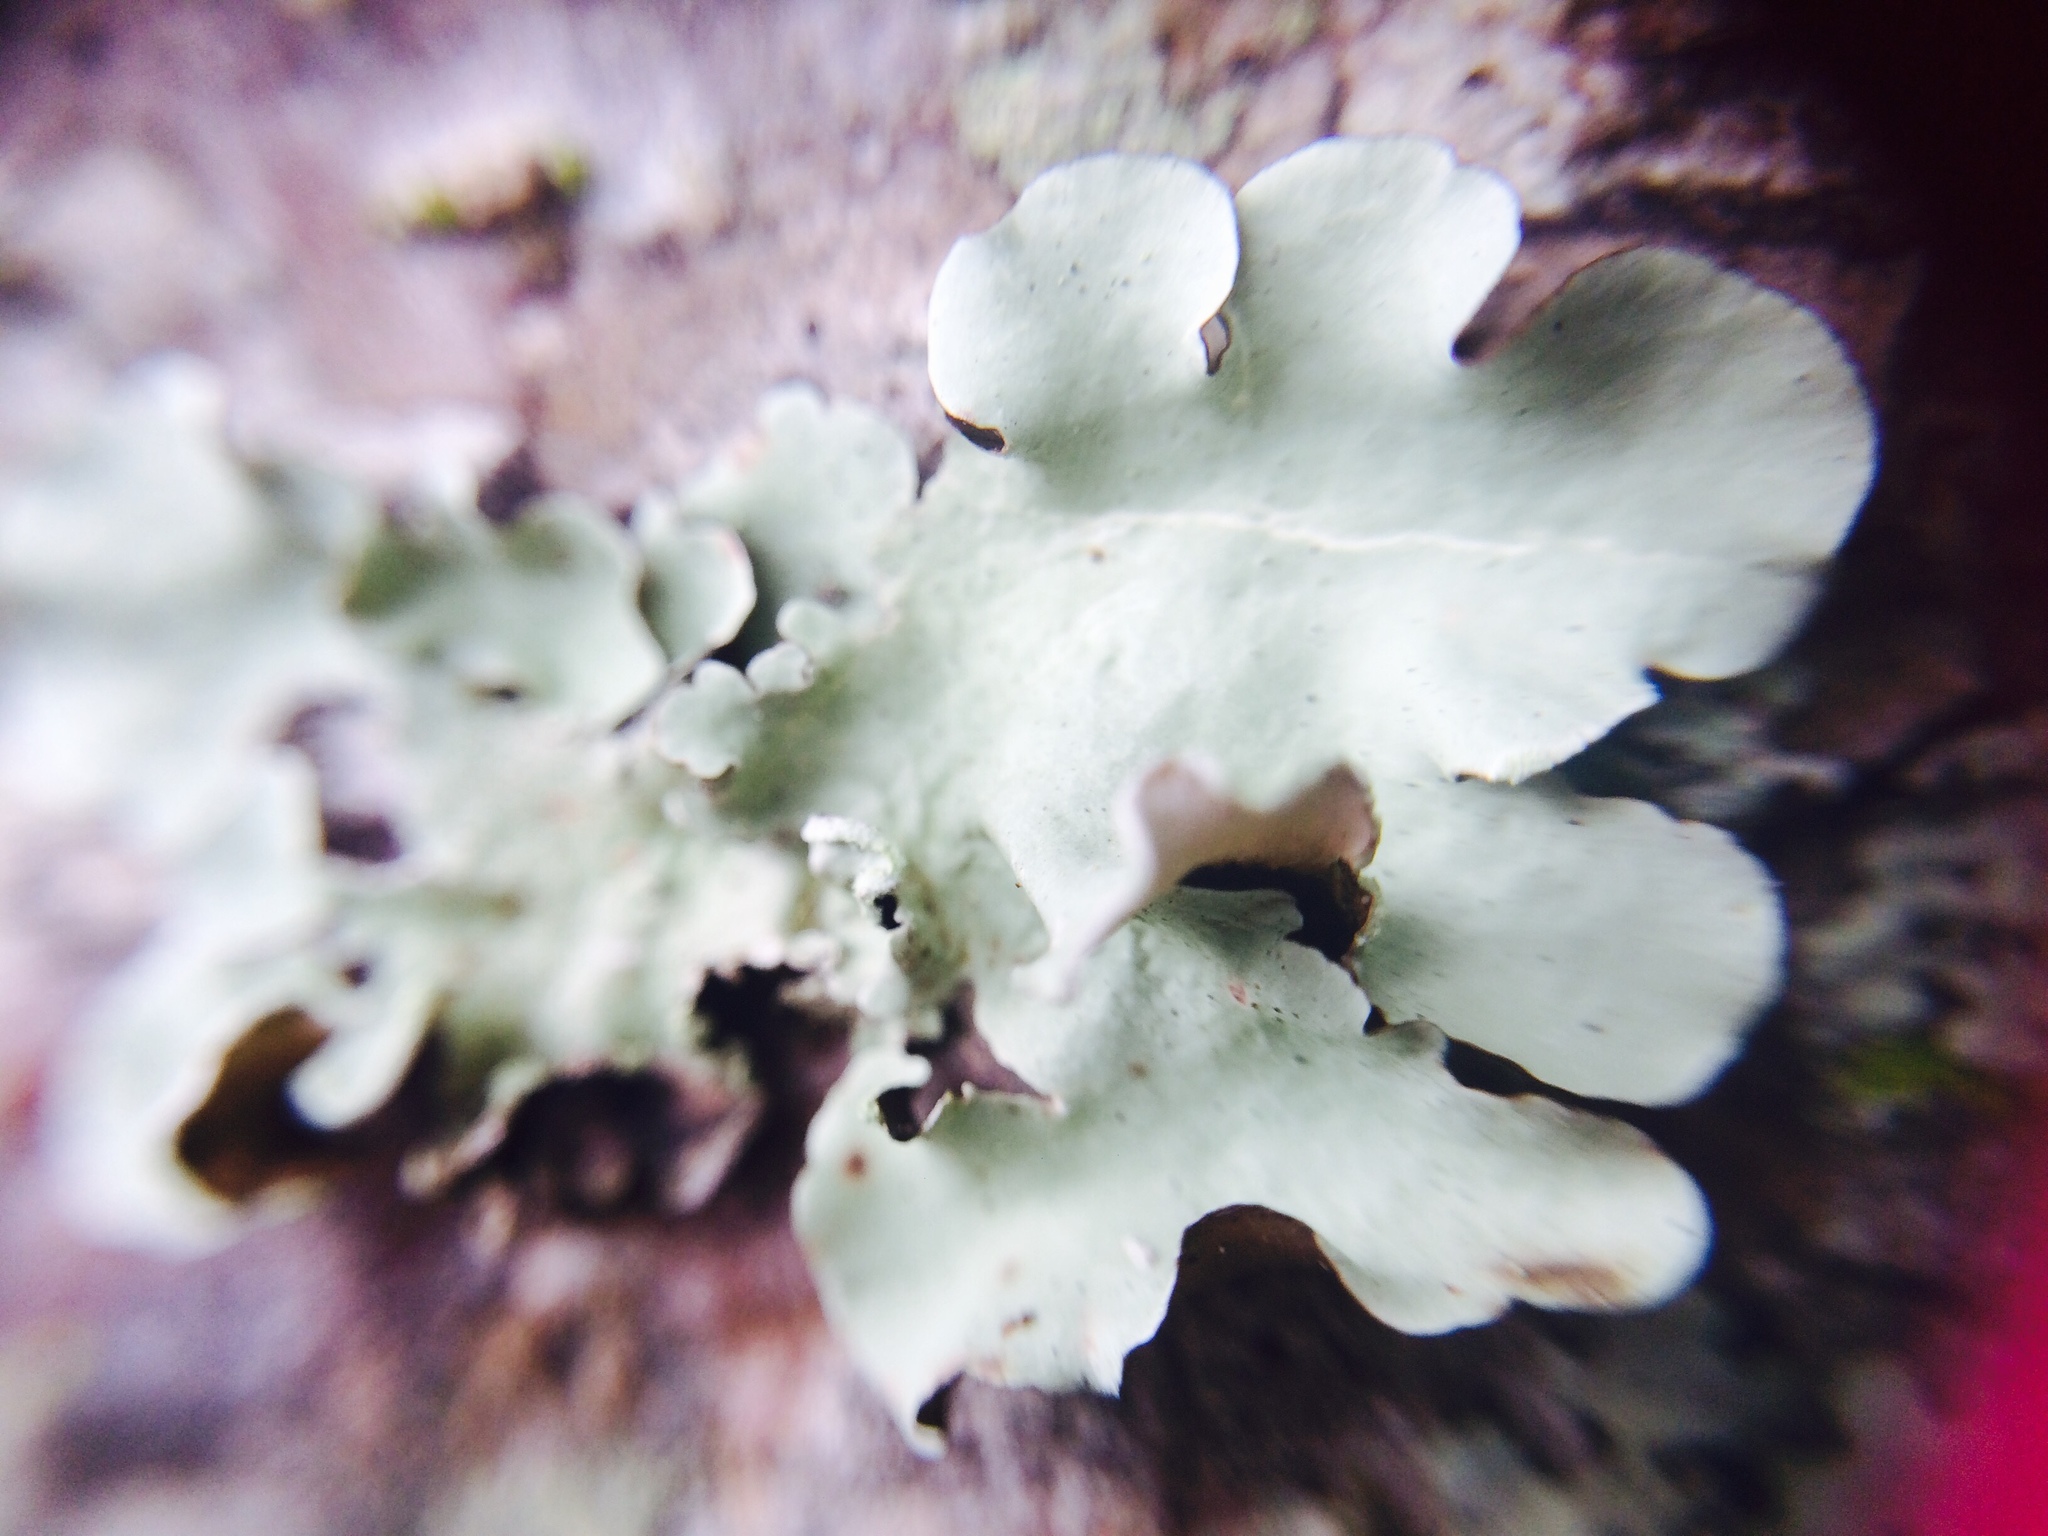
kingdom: Fungi
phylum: Ascomycota
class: Lecanoromycetes
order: Lecanorales
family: Parmeliaceae
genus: Parmotrema
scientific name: Parmotrema austrosinense
